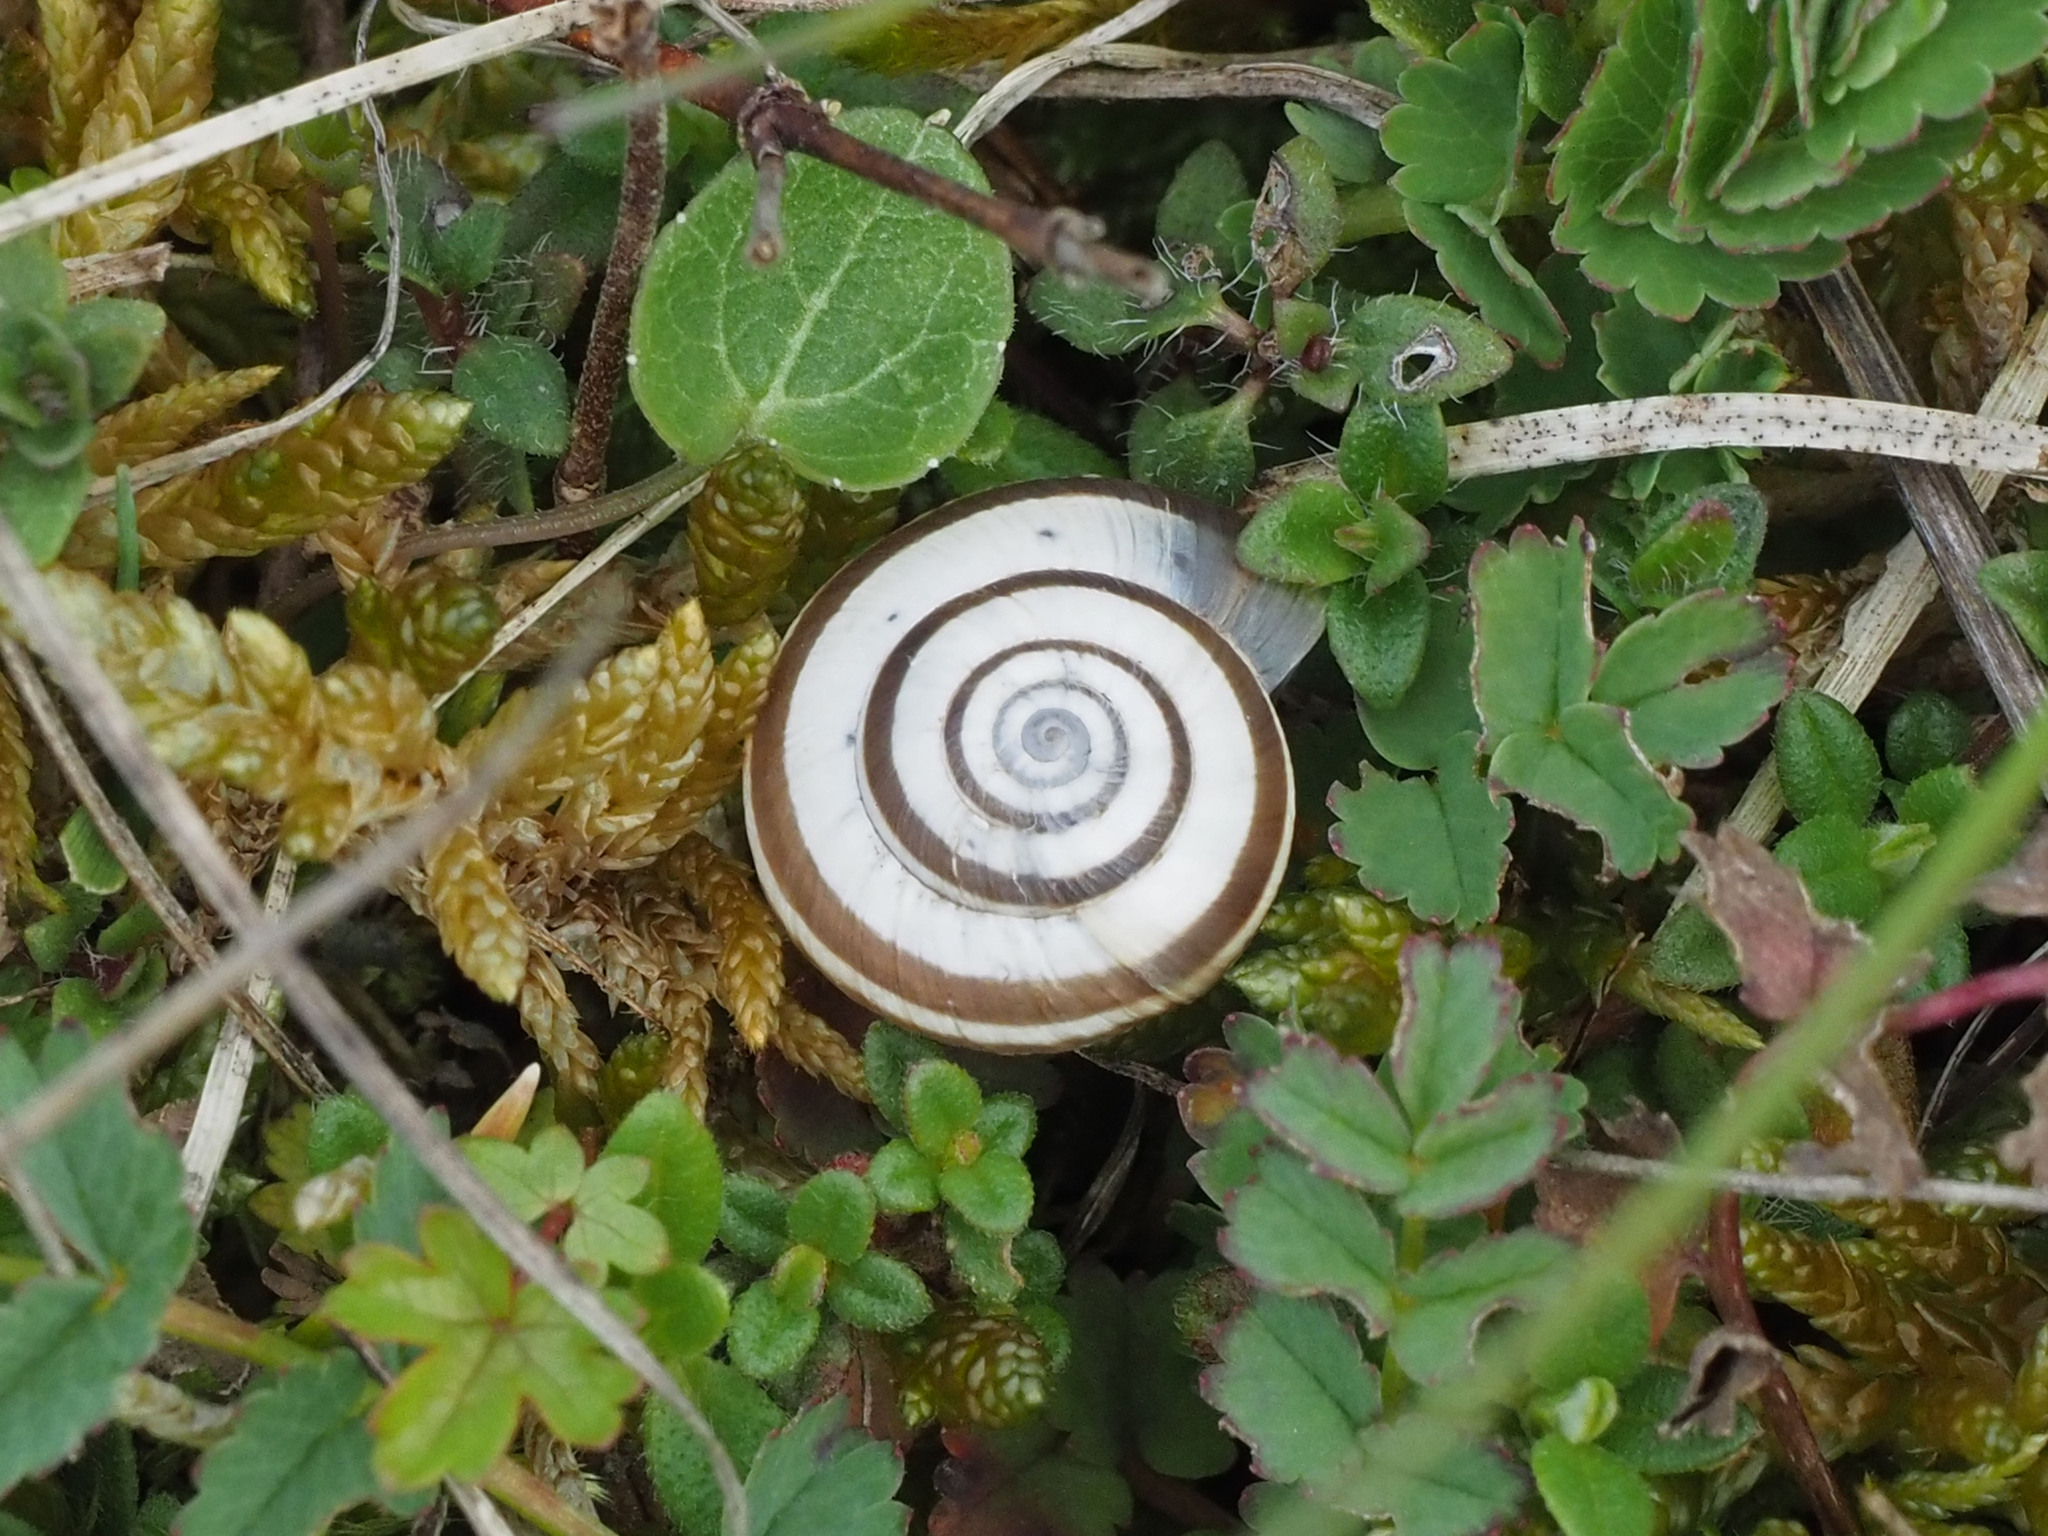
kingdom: Animalia
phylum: Mollusca
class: Gastropoda
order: Stylommatophora
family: Geomitridae
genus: Helicella
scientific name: Helicella itala
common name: Heath snail
